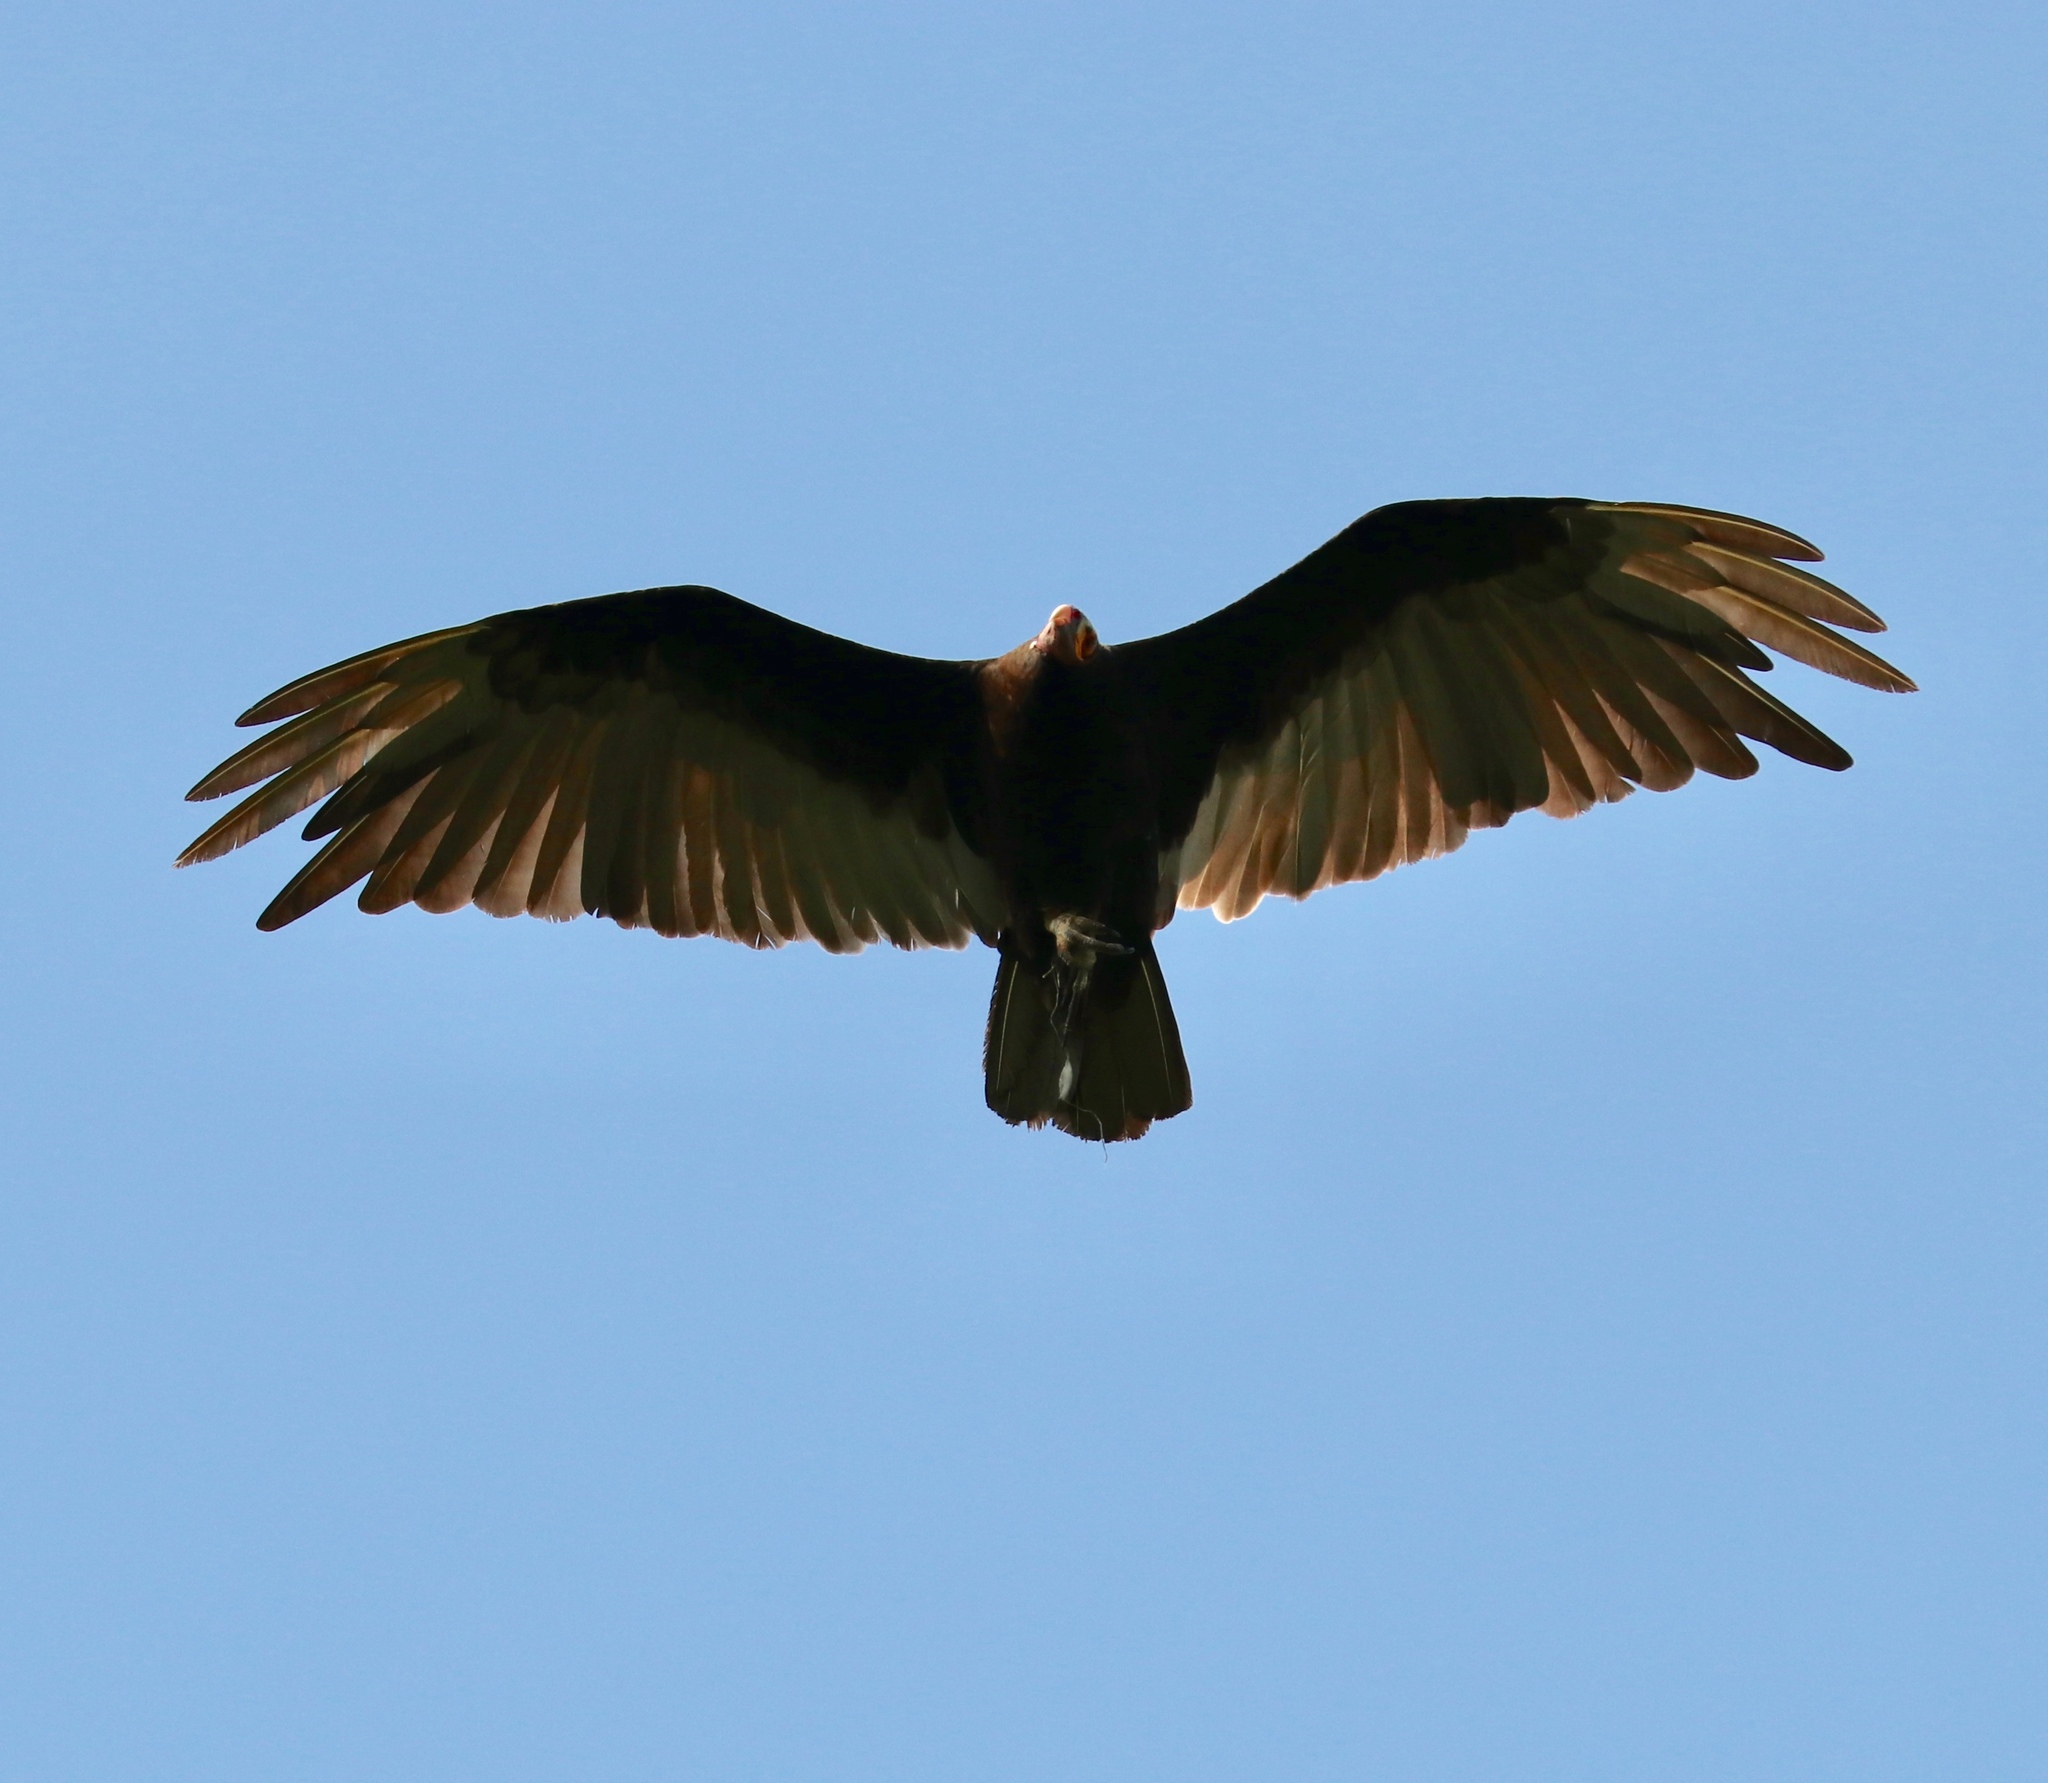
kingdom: Animalia
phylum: Chordata
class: Aves
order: Accipitriformes
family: Cathartidae
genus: Cathartes
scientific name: Cathartes burrovianus
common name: Lesser yellow-headed vulture
